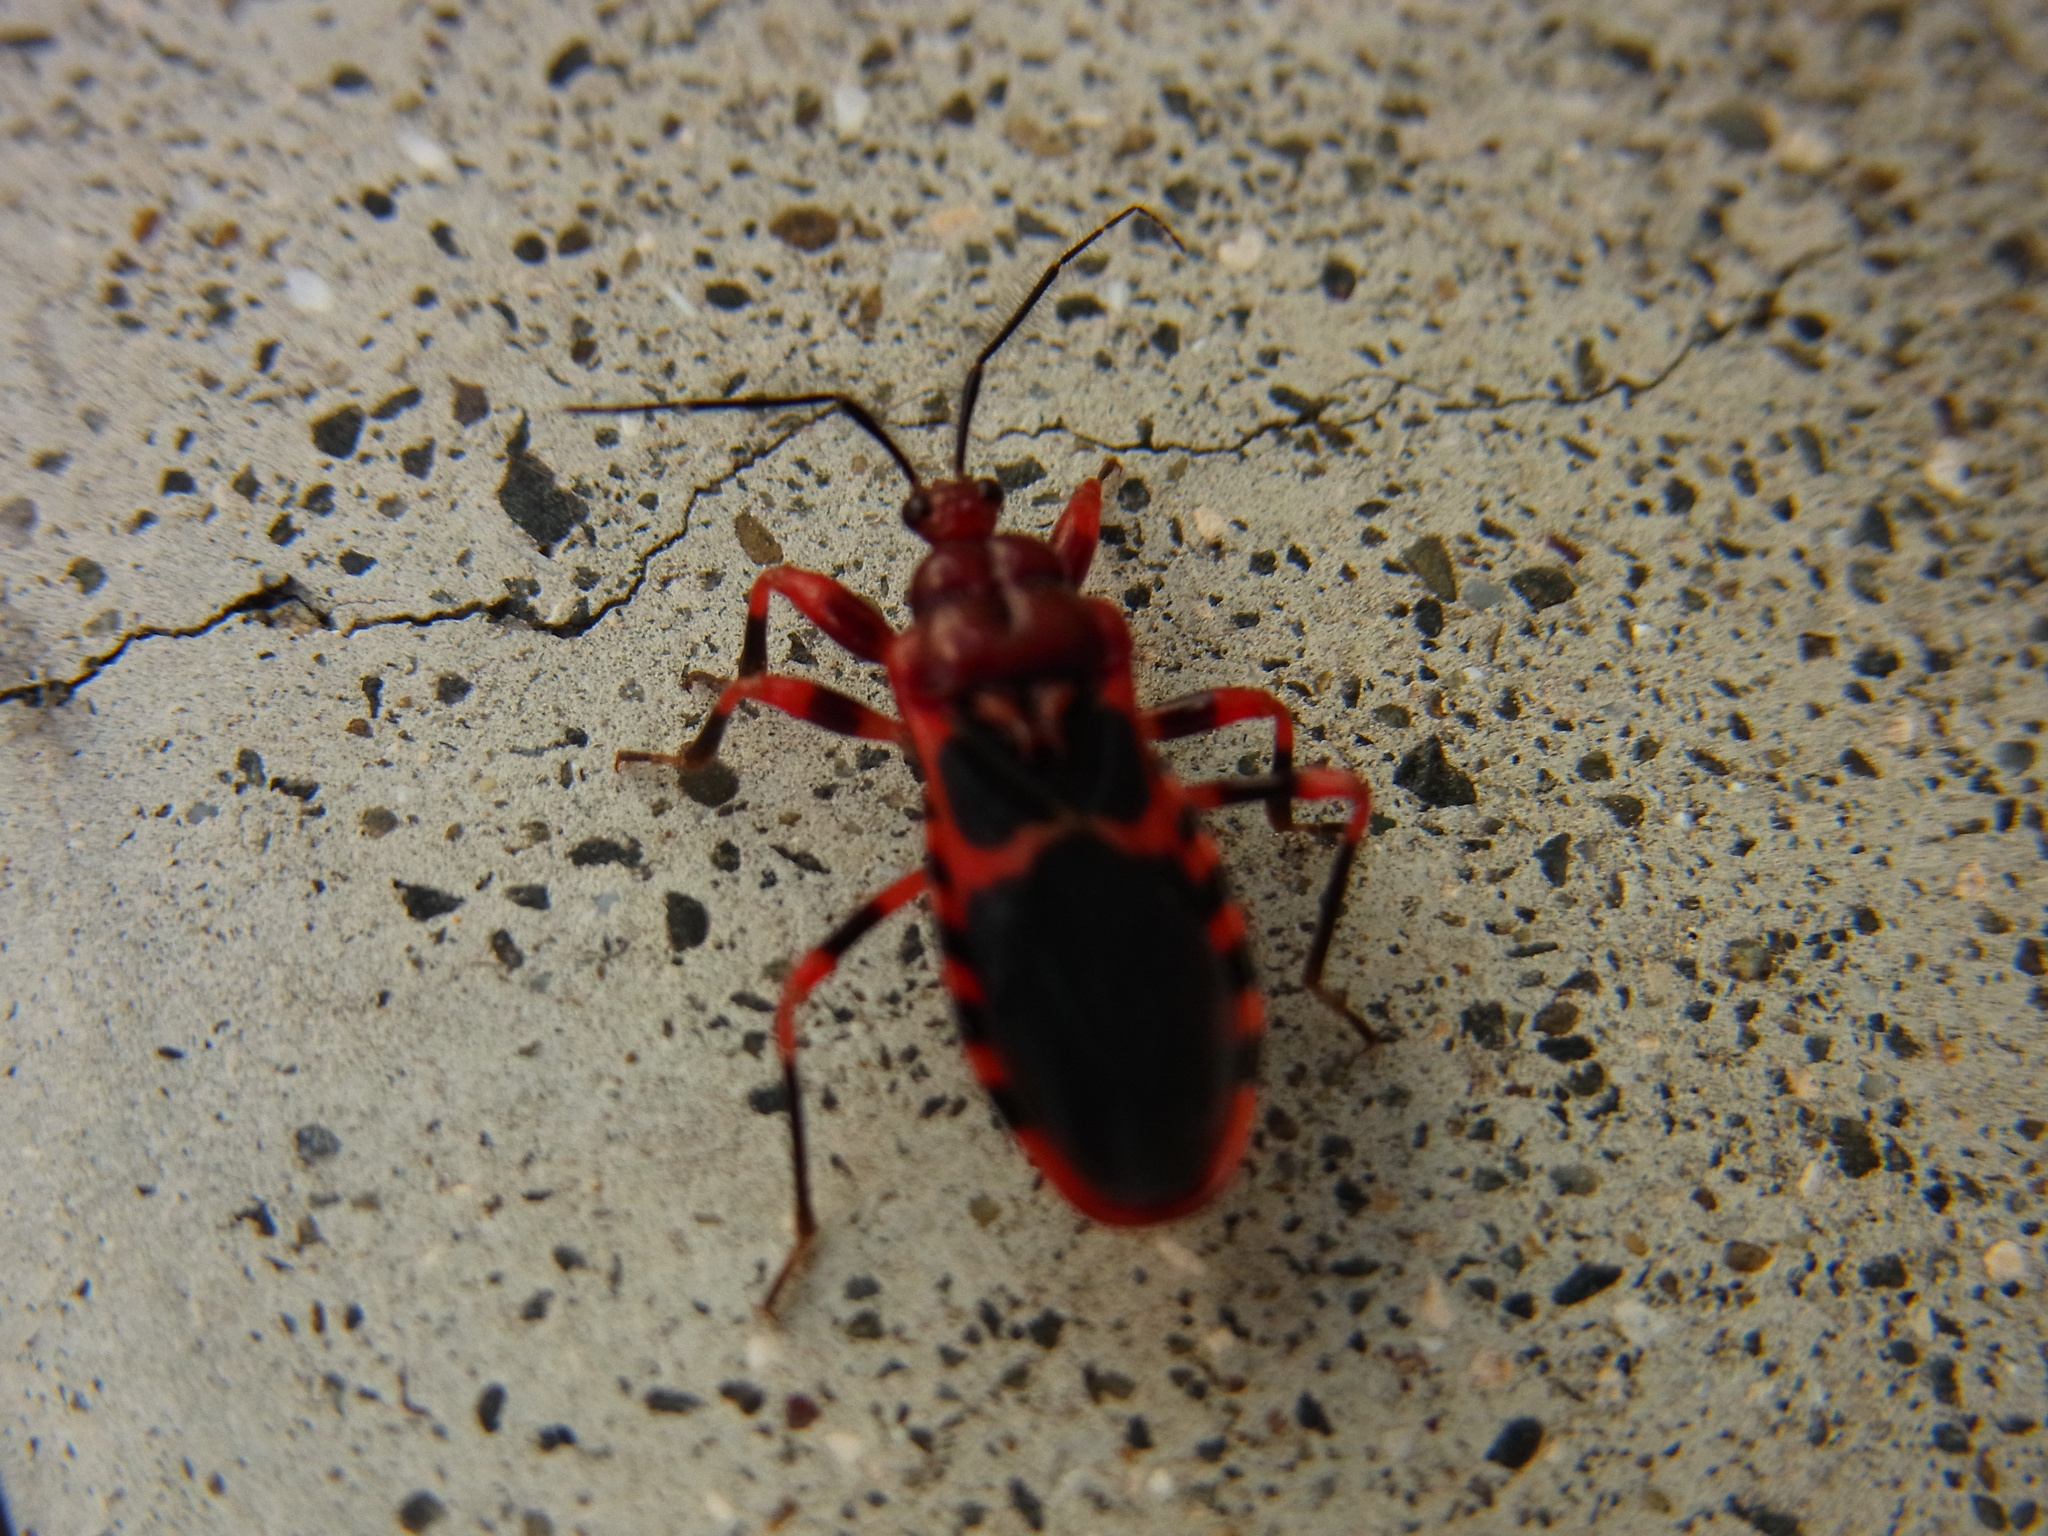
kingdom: Animalia
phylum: Arthropoda
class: Insecta
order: Hemiptera
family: Reduviidae
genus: Haematoloecha
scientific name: Haematoloecha rubescens
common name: Assassin bug
